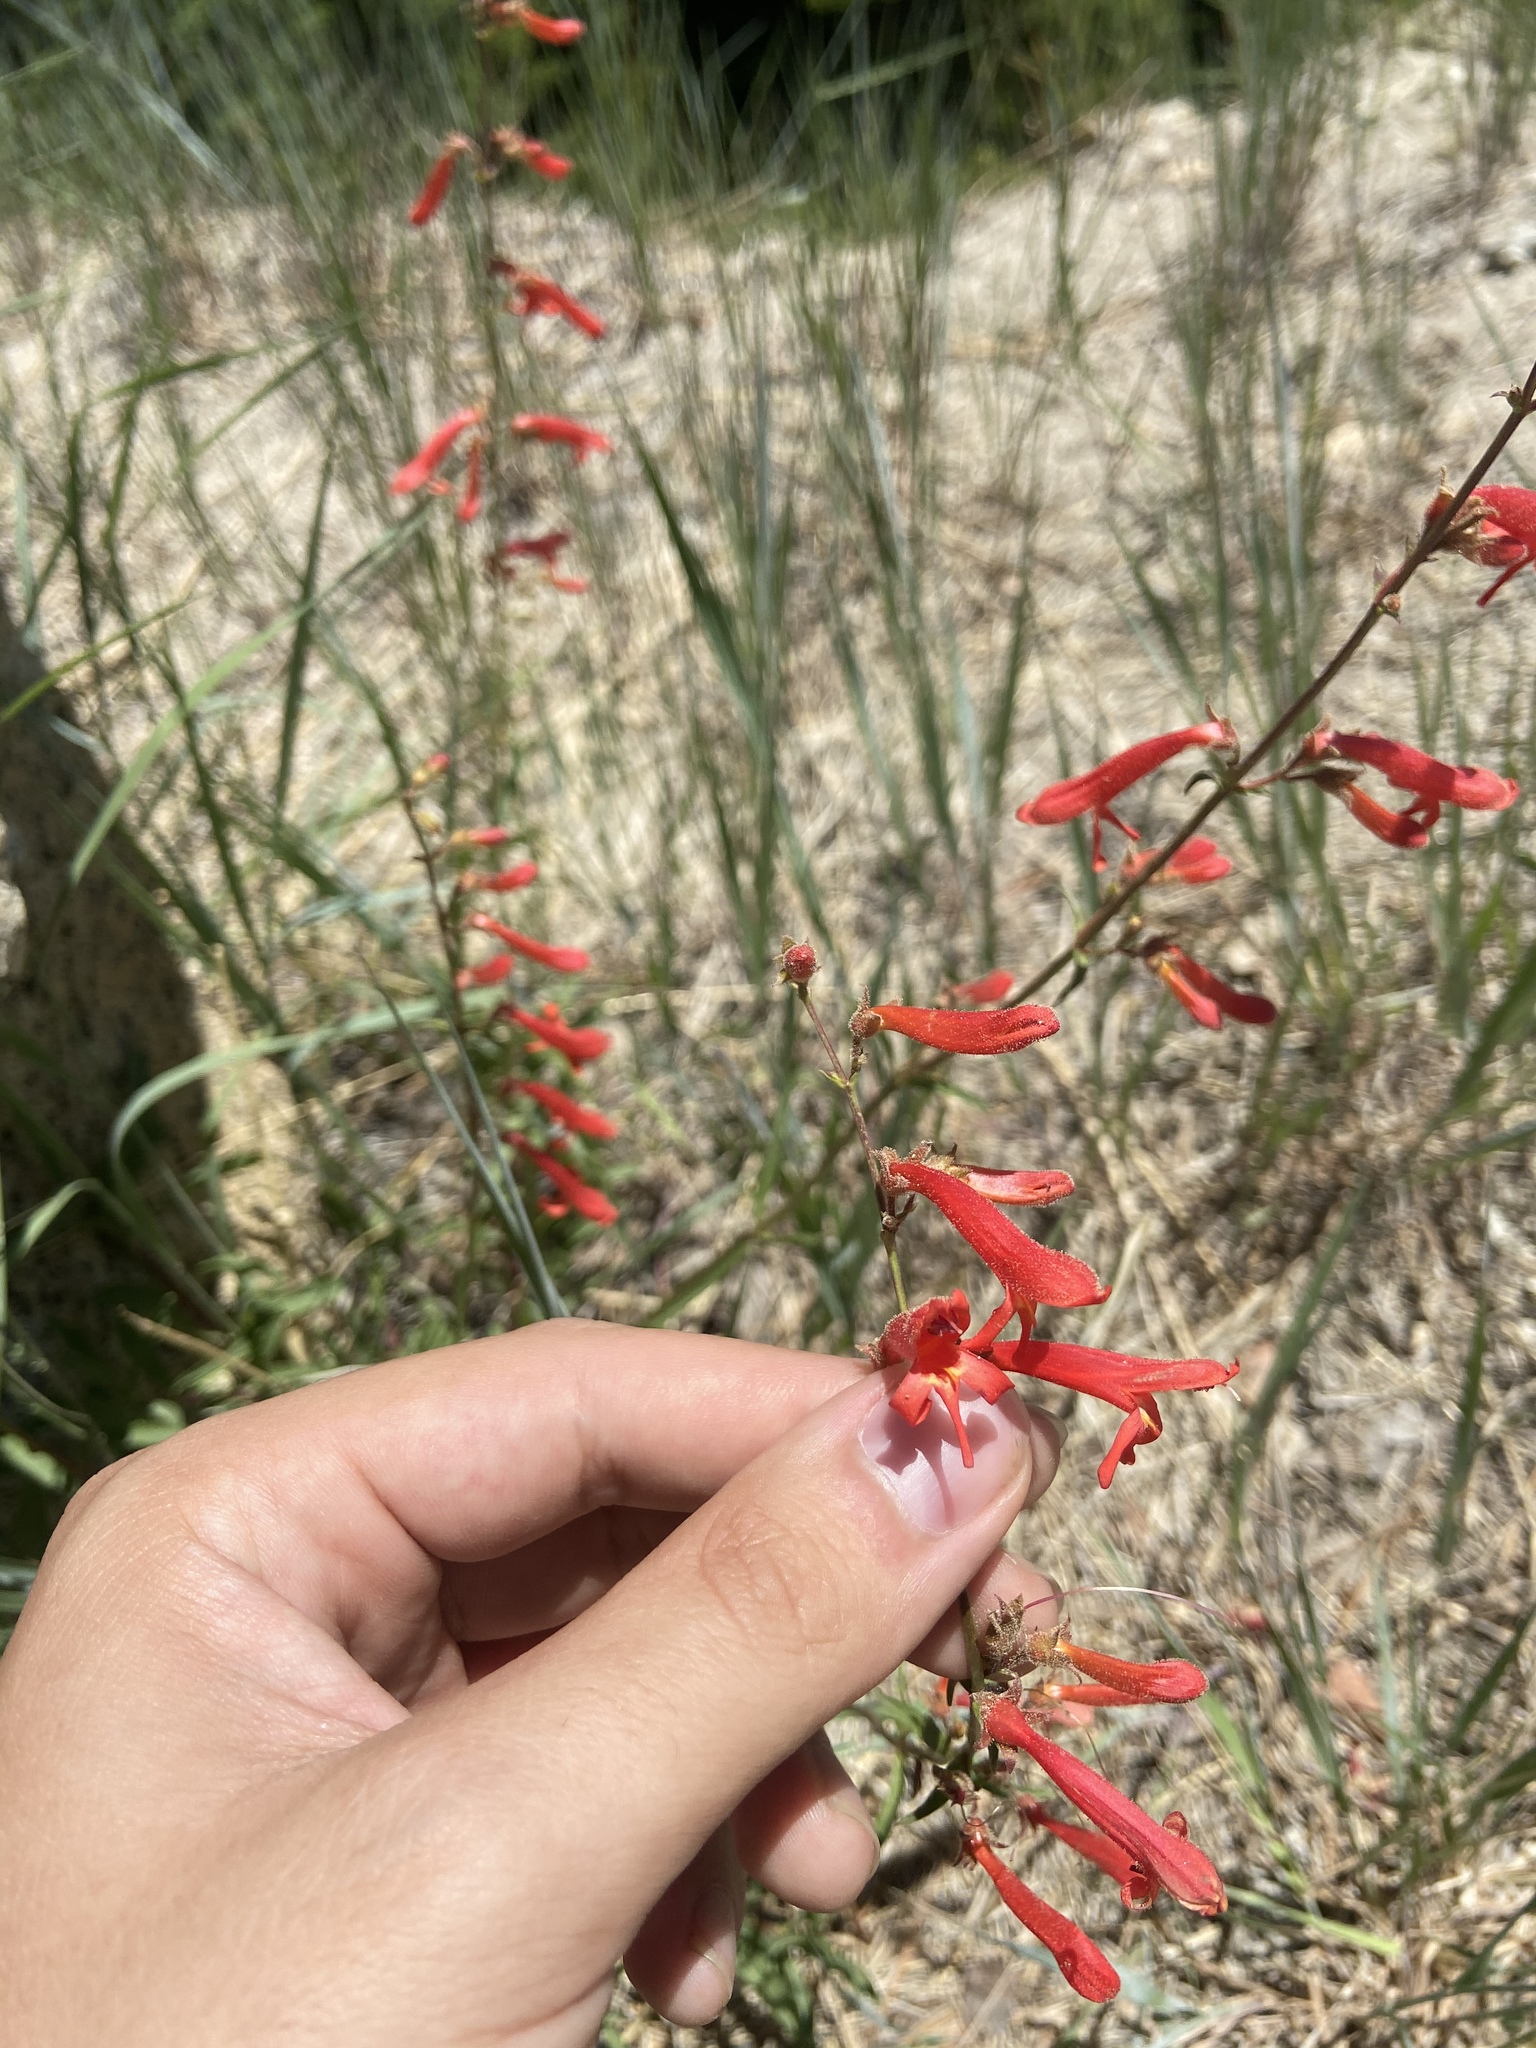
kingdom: Plantae
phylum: Tracheophyta
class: Magnoliopsida
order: Lamiales
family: Plantaginaceae
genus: Penstemon
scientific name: Penstemon rostriflorus
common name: Bridges's penstemon
